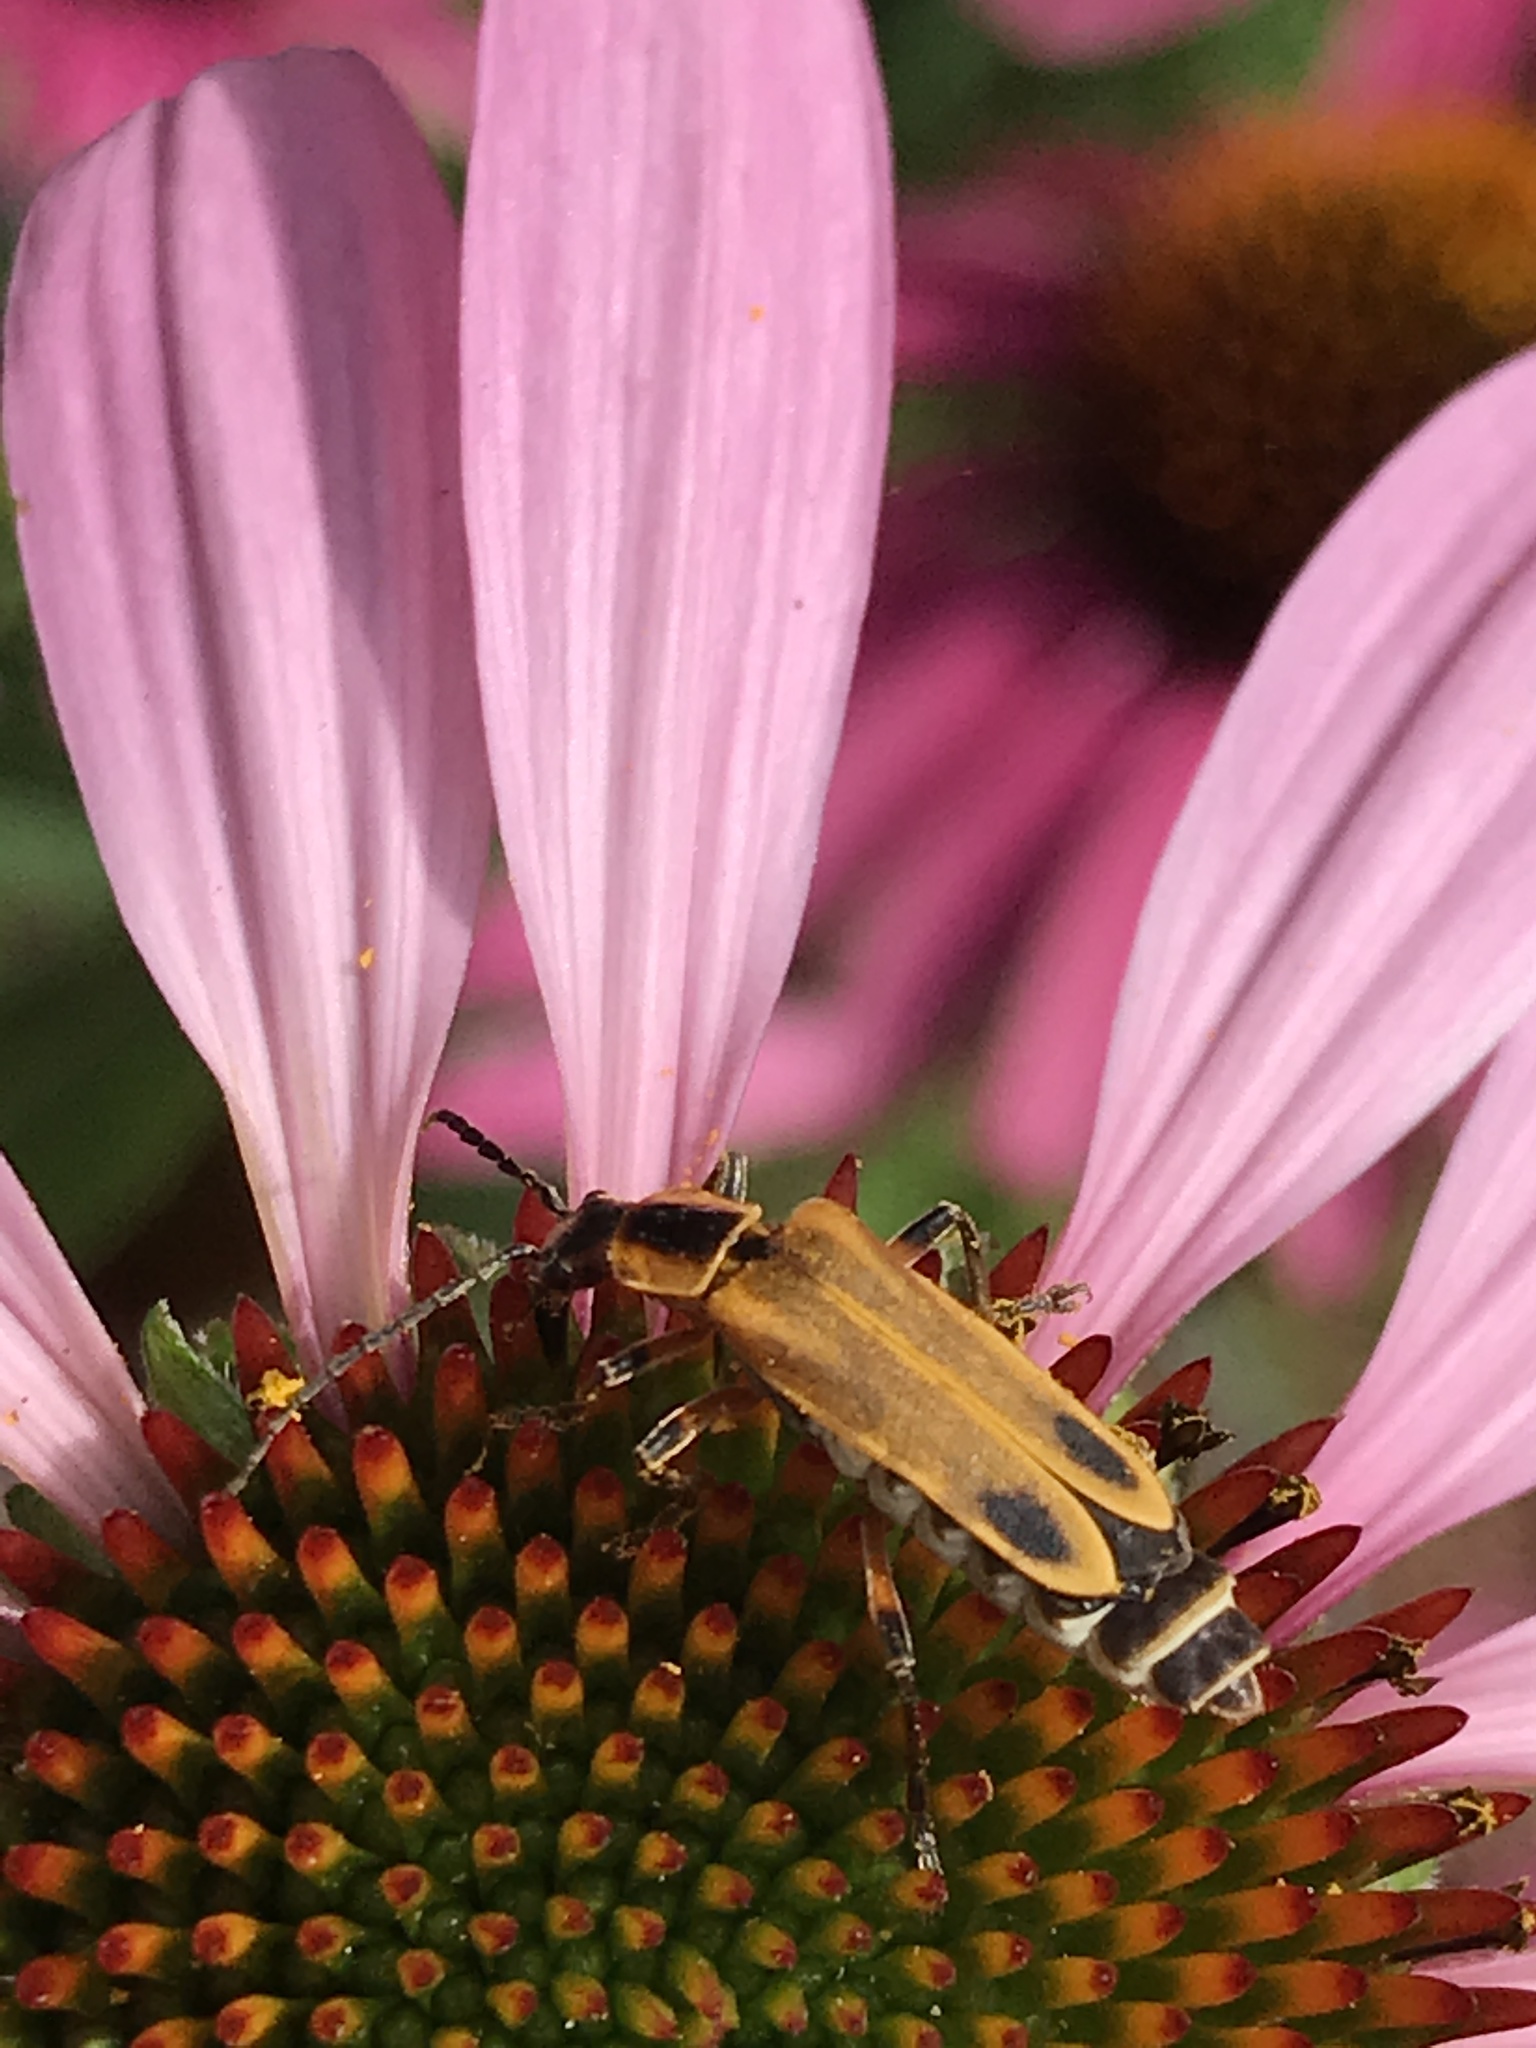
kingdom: Animalia
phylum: Arthropoda
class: Insecta
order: Coleoptera
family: Cantharidae
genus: Chauliognathus
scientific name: Chauliognathus marginatus
